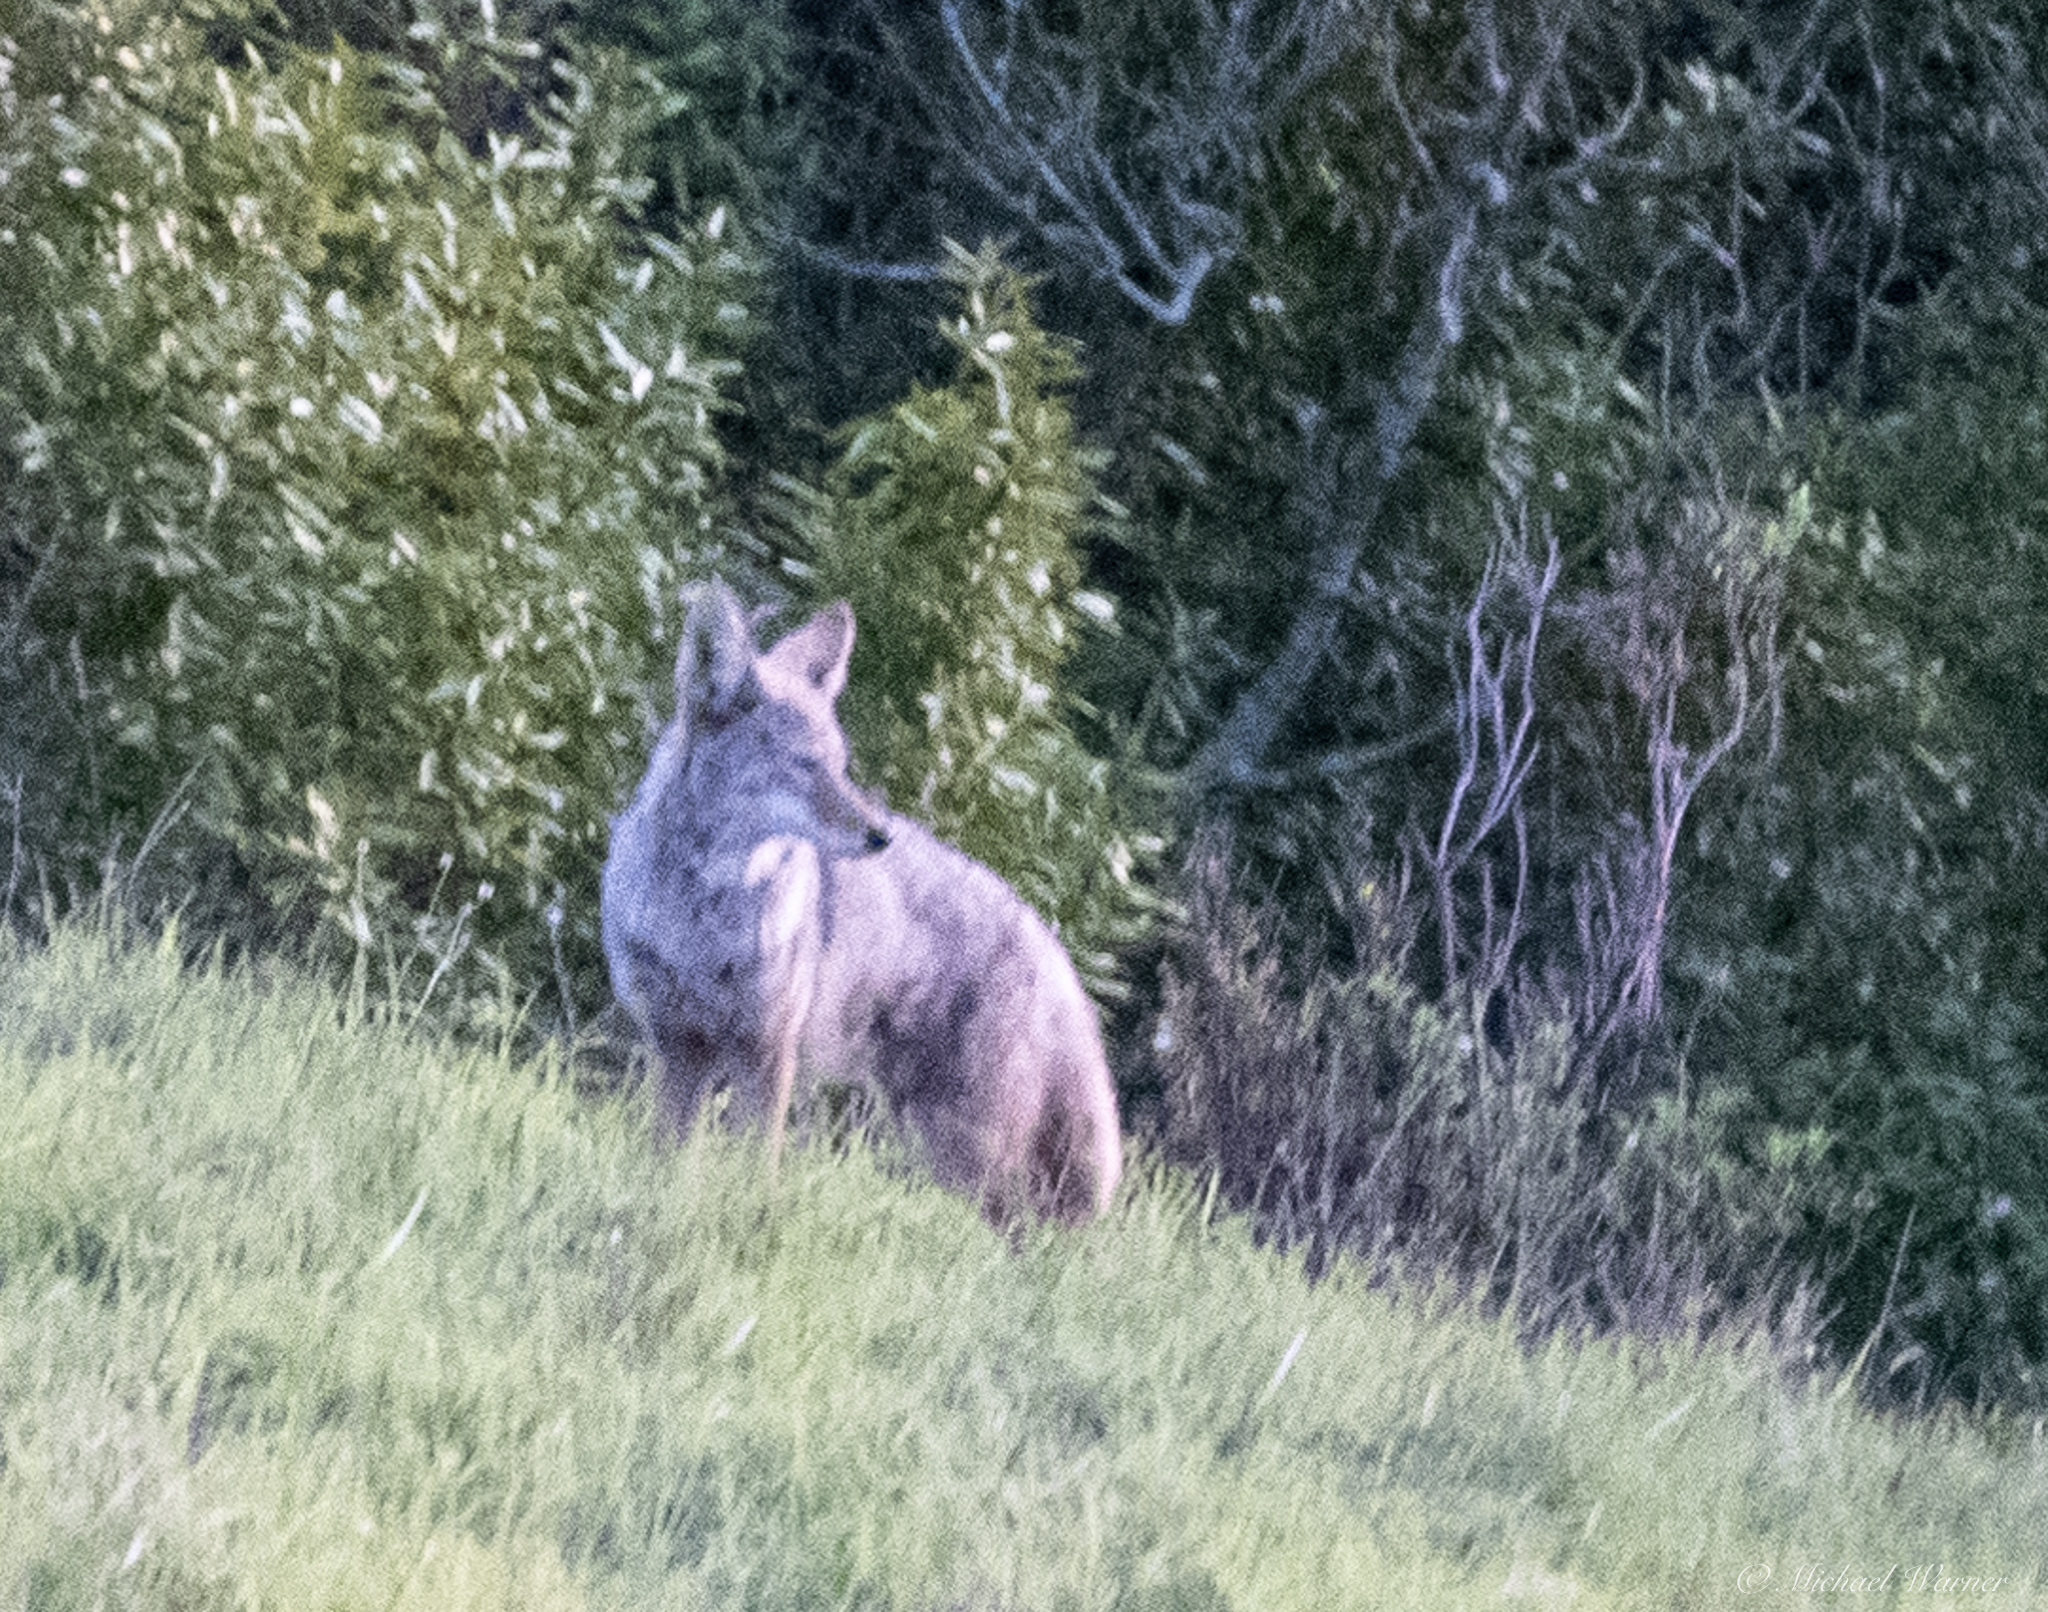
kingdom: Animalia
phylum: Chordata
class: Mammalia
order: Carnivora
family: Canidae
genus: Canis
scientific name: Canis latrans
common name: Coyote
